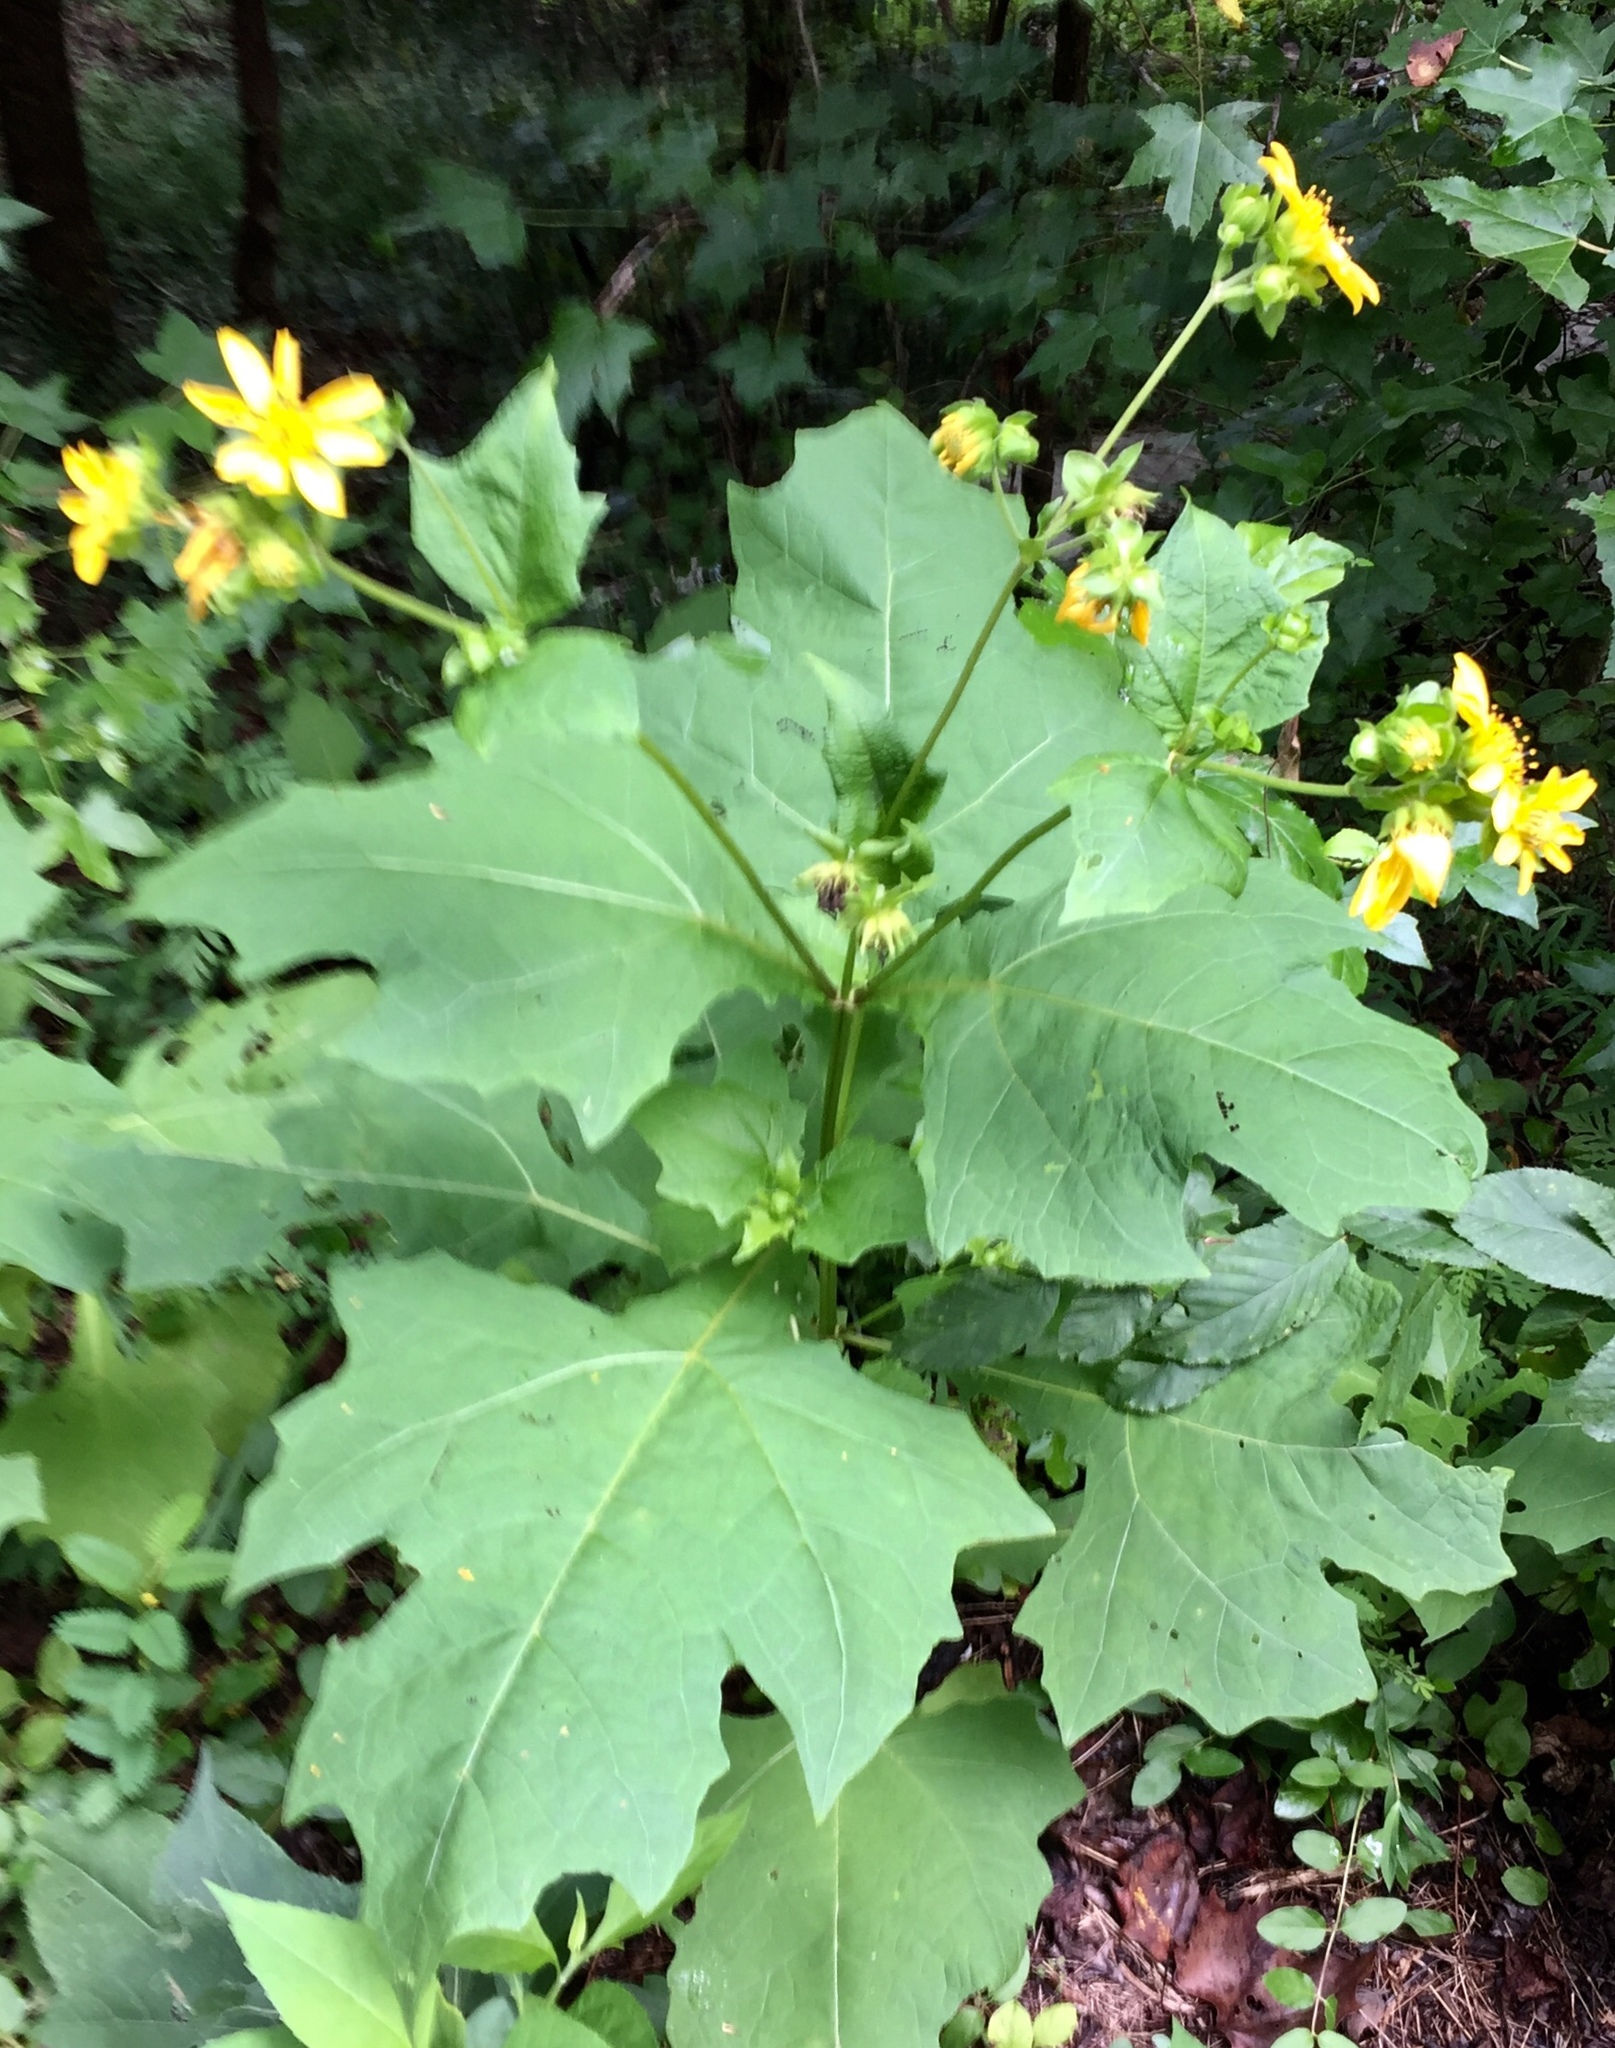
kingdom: Plantae
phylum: Tracheophyta
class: Magnoliopsida
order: Asterales
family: Asteraceae
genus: Smallanthus
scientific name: Smallanthus uvedalia
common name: Bear's-foot
